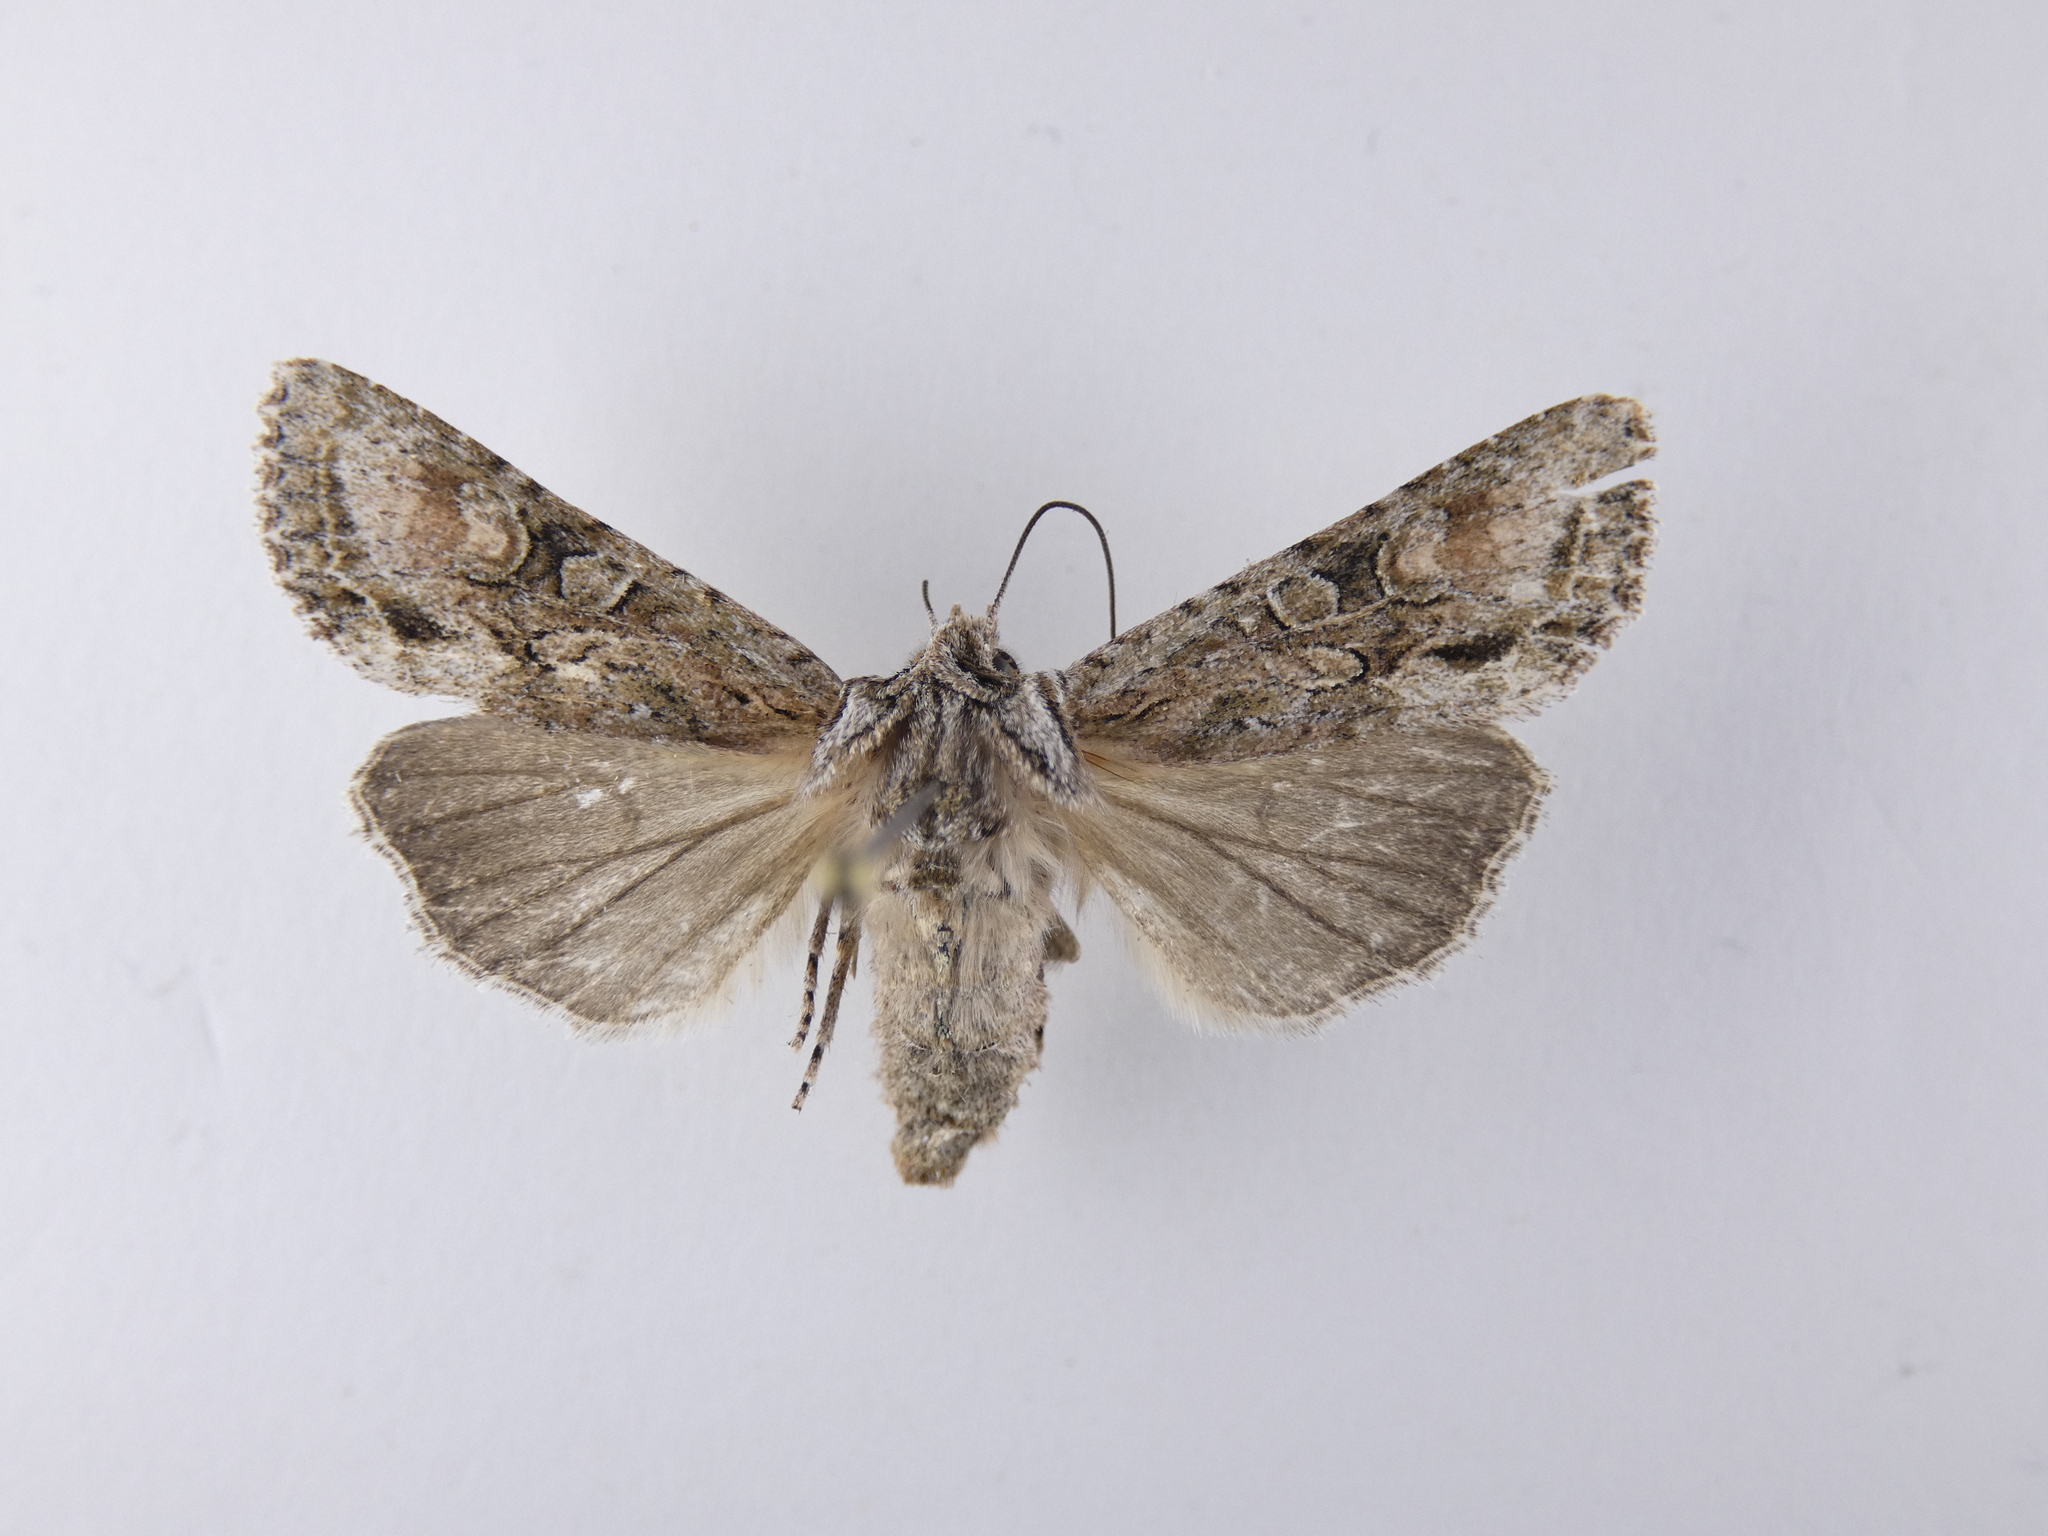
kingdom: Animalia
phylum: Arthropoda
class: Insecta
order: Lepidoptera
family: Noctuidae
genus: Ichneutica
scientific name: Ichneutica mutans
